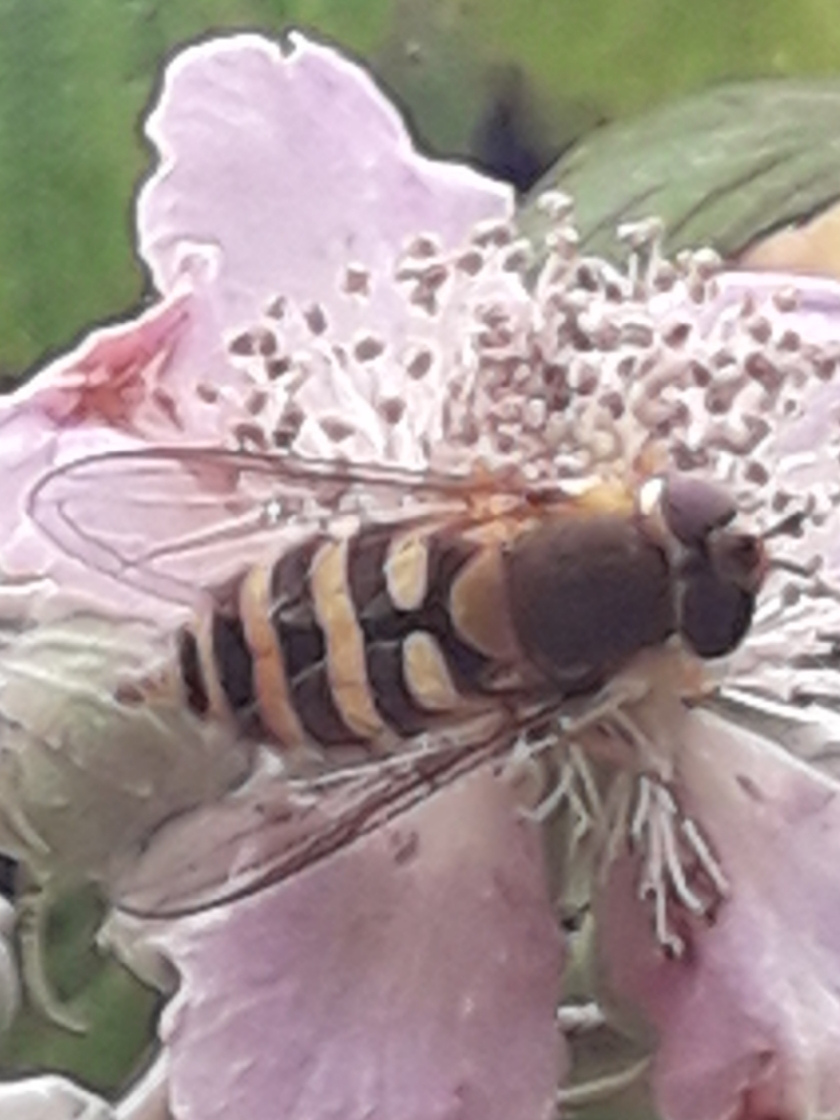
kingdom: Animalia
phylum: Arthropoda
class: Insecta
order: Diptera
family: Syrphidae
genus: Syrphus
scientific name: Syrphus
